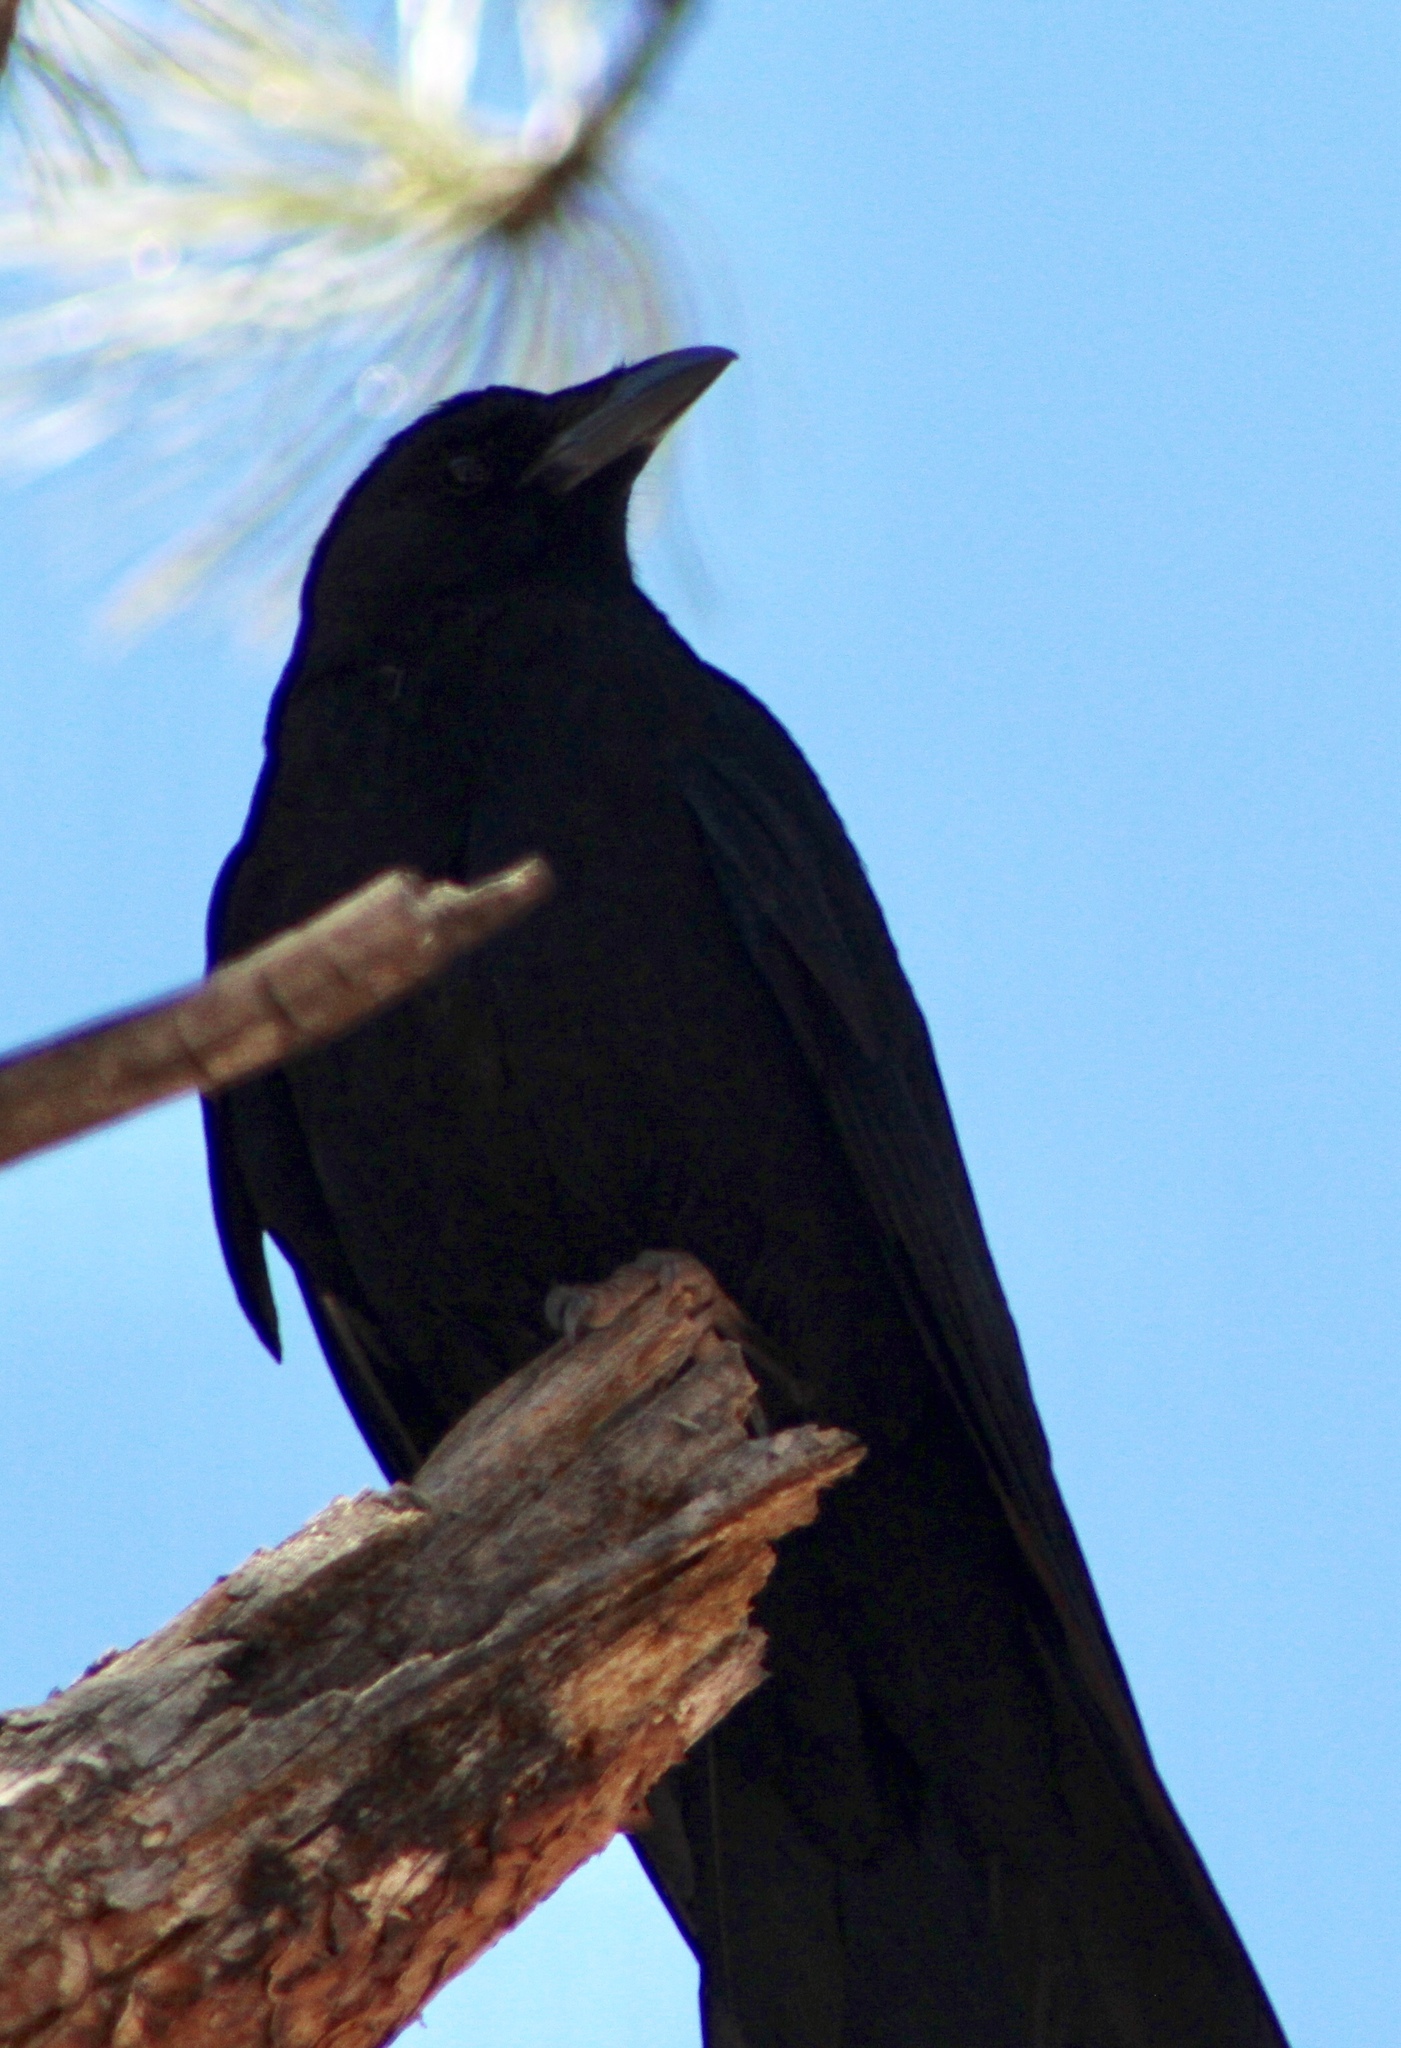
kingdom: Animalia
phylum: Chordata
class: Aves
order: Passeriformes
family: Corvidae
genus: Corvus
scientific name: Corvus brachyrhynchos
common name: American crow
